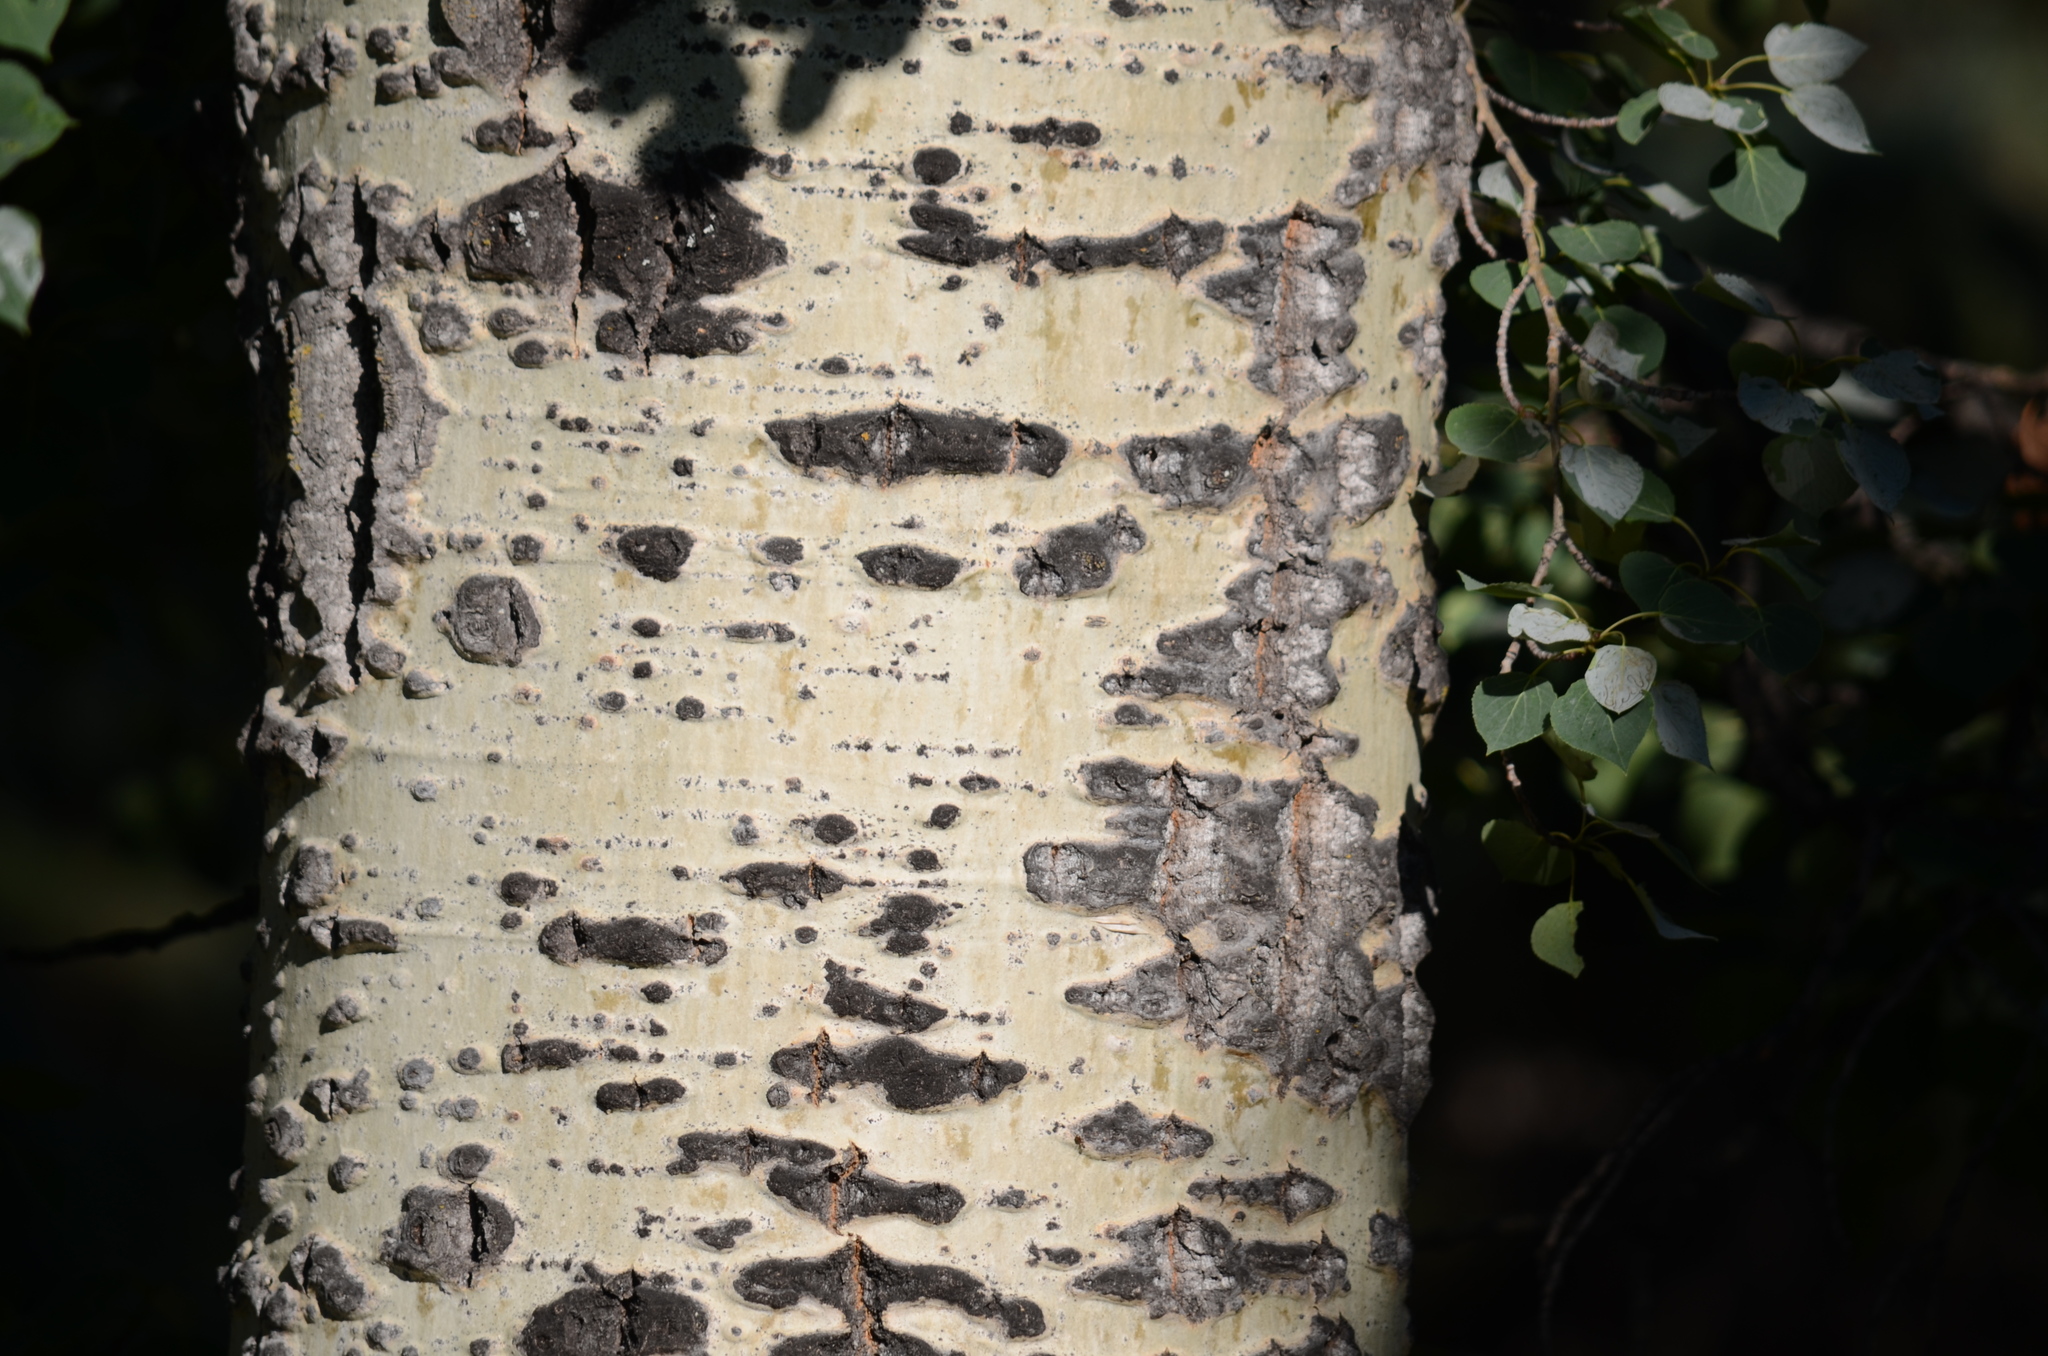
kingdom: Plantae
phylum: Tracheophyta
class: Magnoliopsida
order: Malpighiales
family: Salicaceae
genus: Populus
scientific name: Populus tremuloides
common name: Quaking aspen
